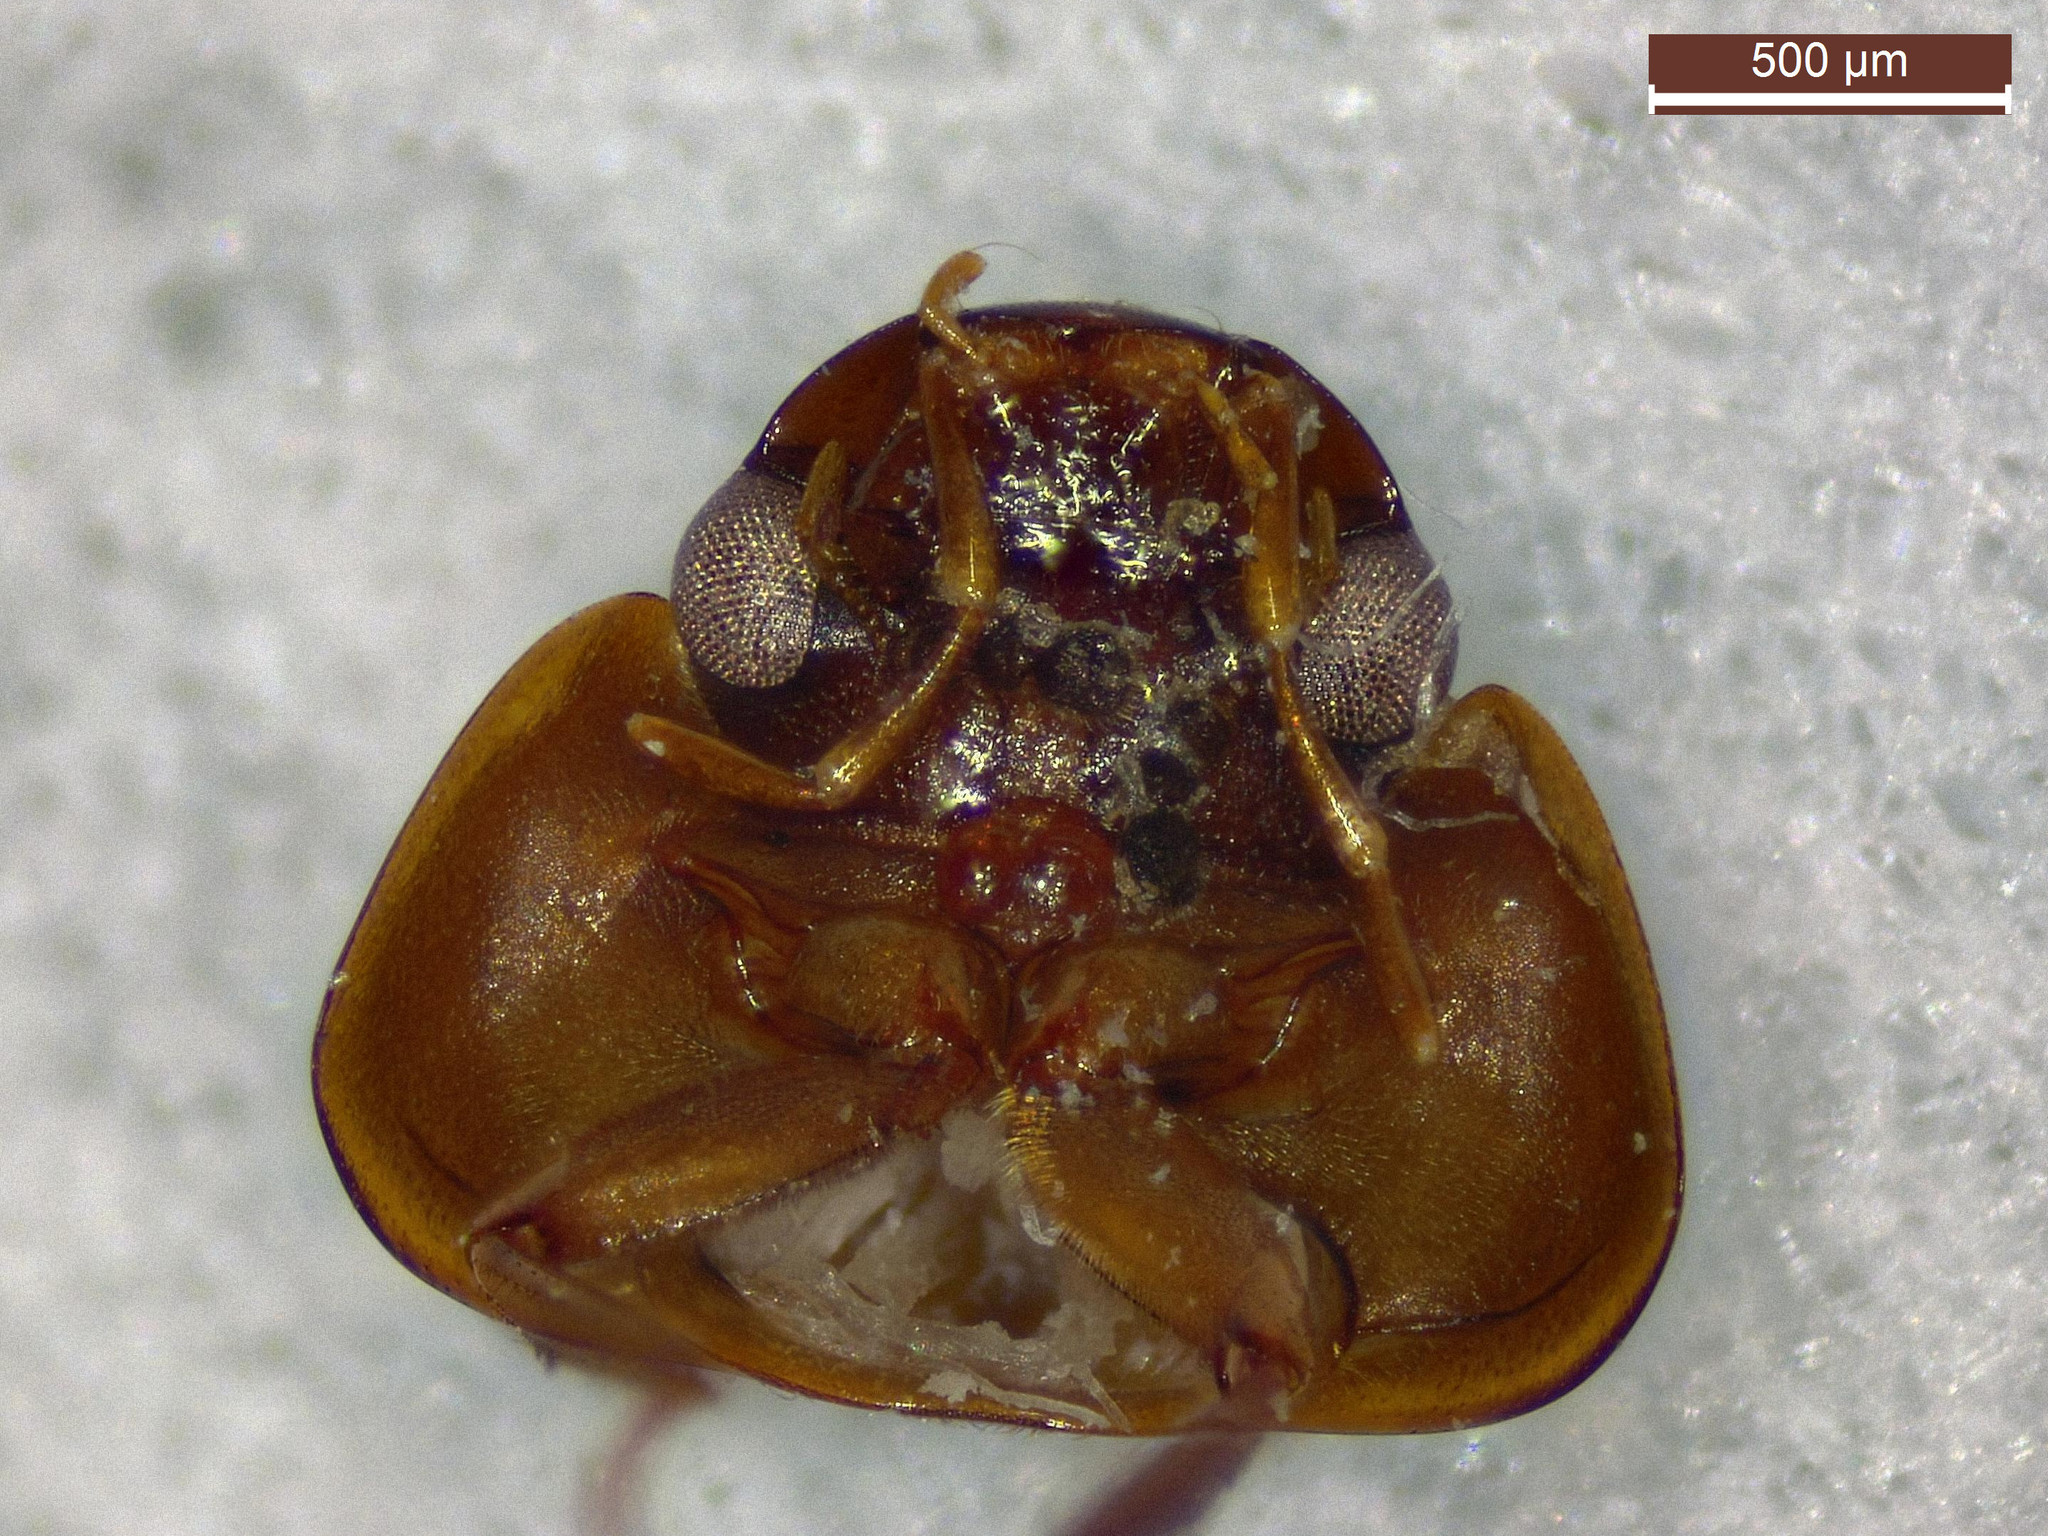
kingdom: Animalia
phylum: Arthropoda
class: Insecta
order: Coleoptera
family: Hydrophilidae
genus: Enochrus
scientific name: Enochrus ochropterus
